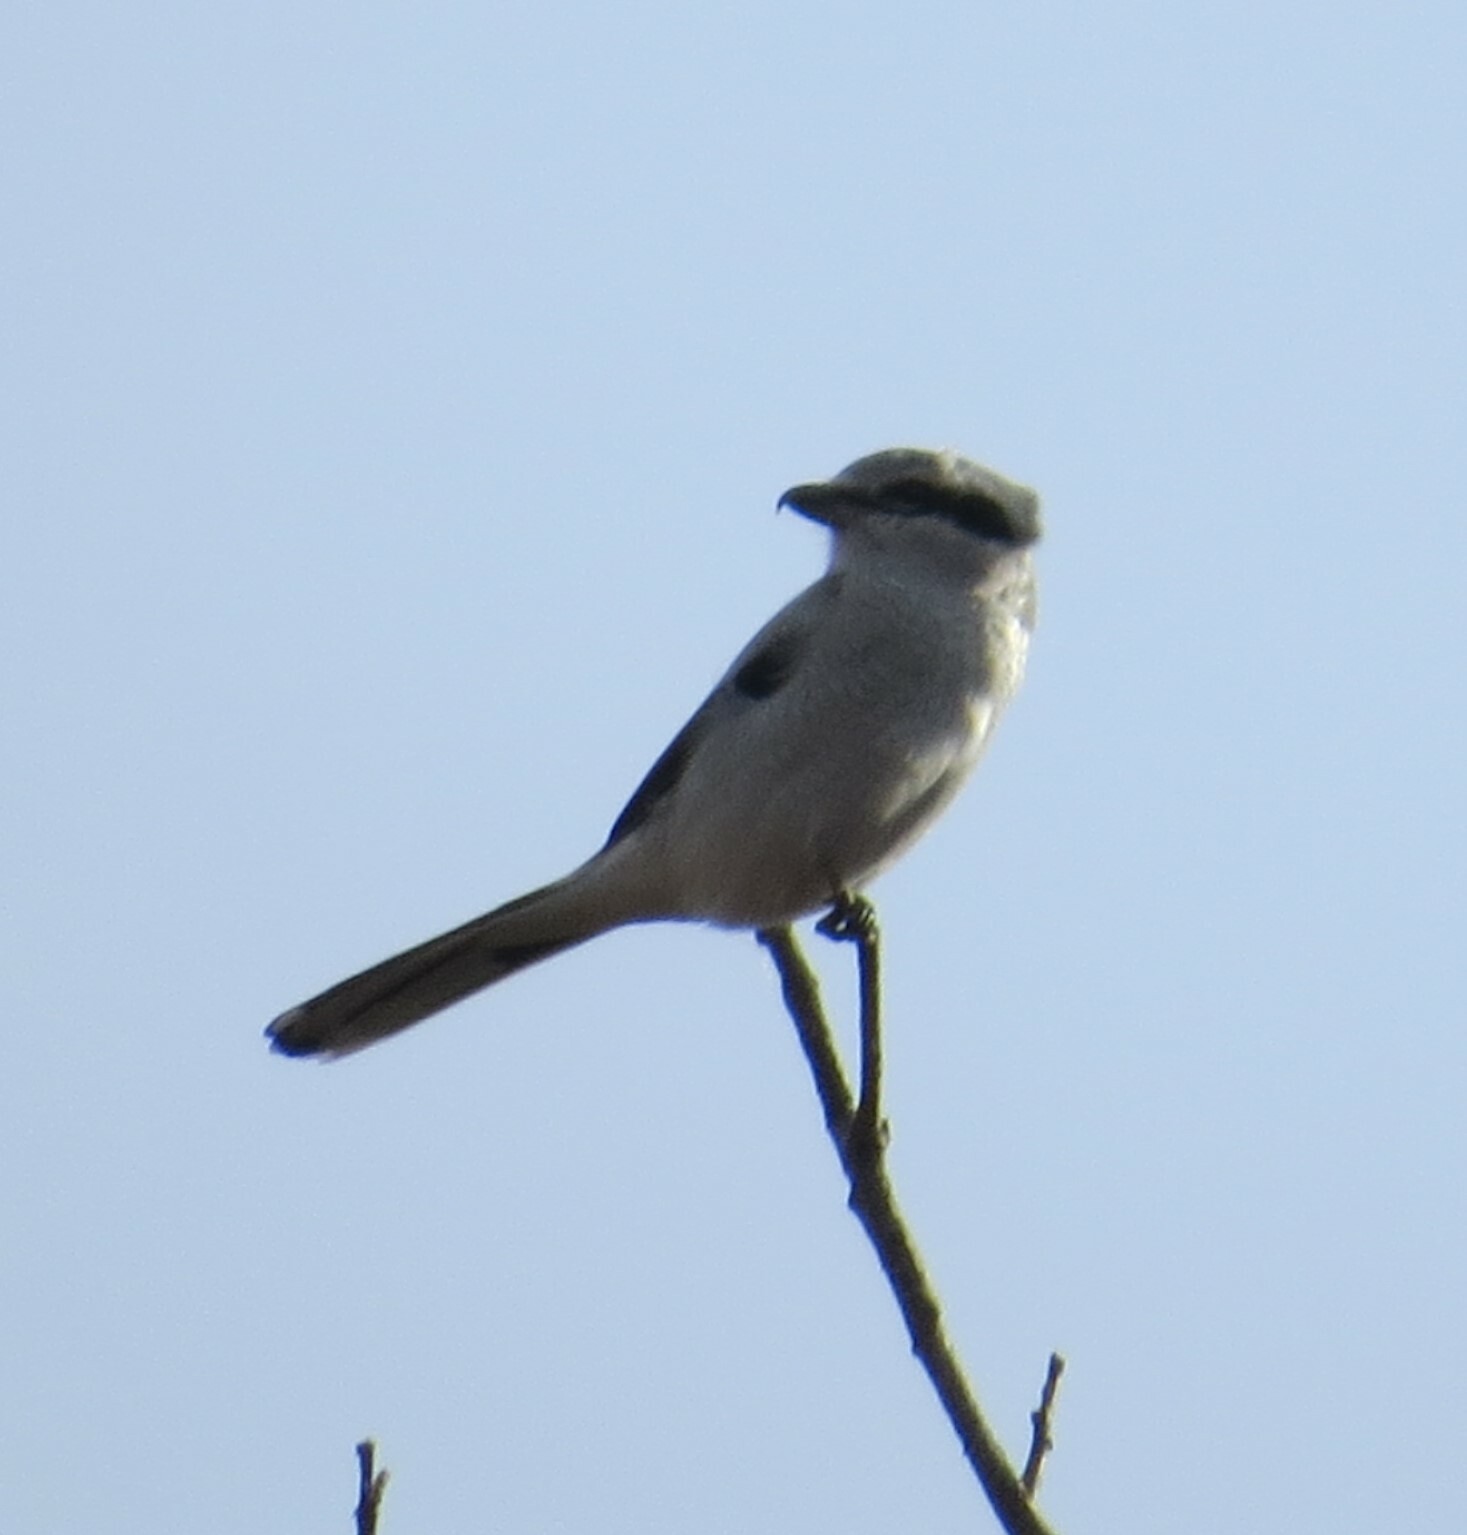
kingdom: Animalia
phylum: Chordata
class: Aves
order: Passeriformes
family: Laniidae
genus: Lanius
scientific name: Lanius borealis
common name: Northern shrike
